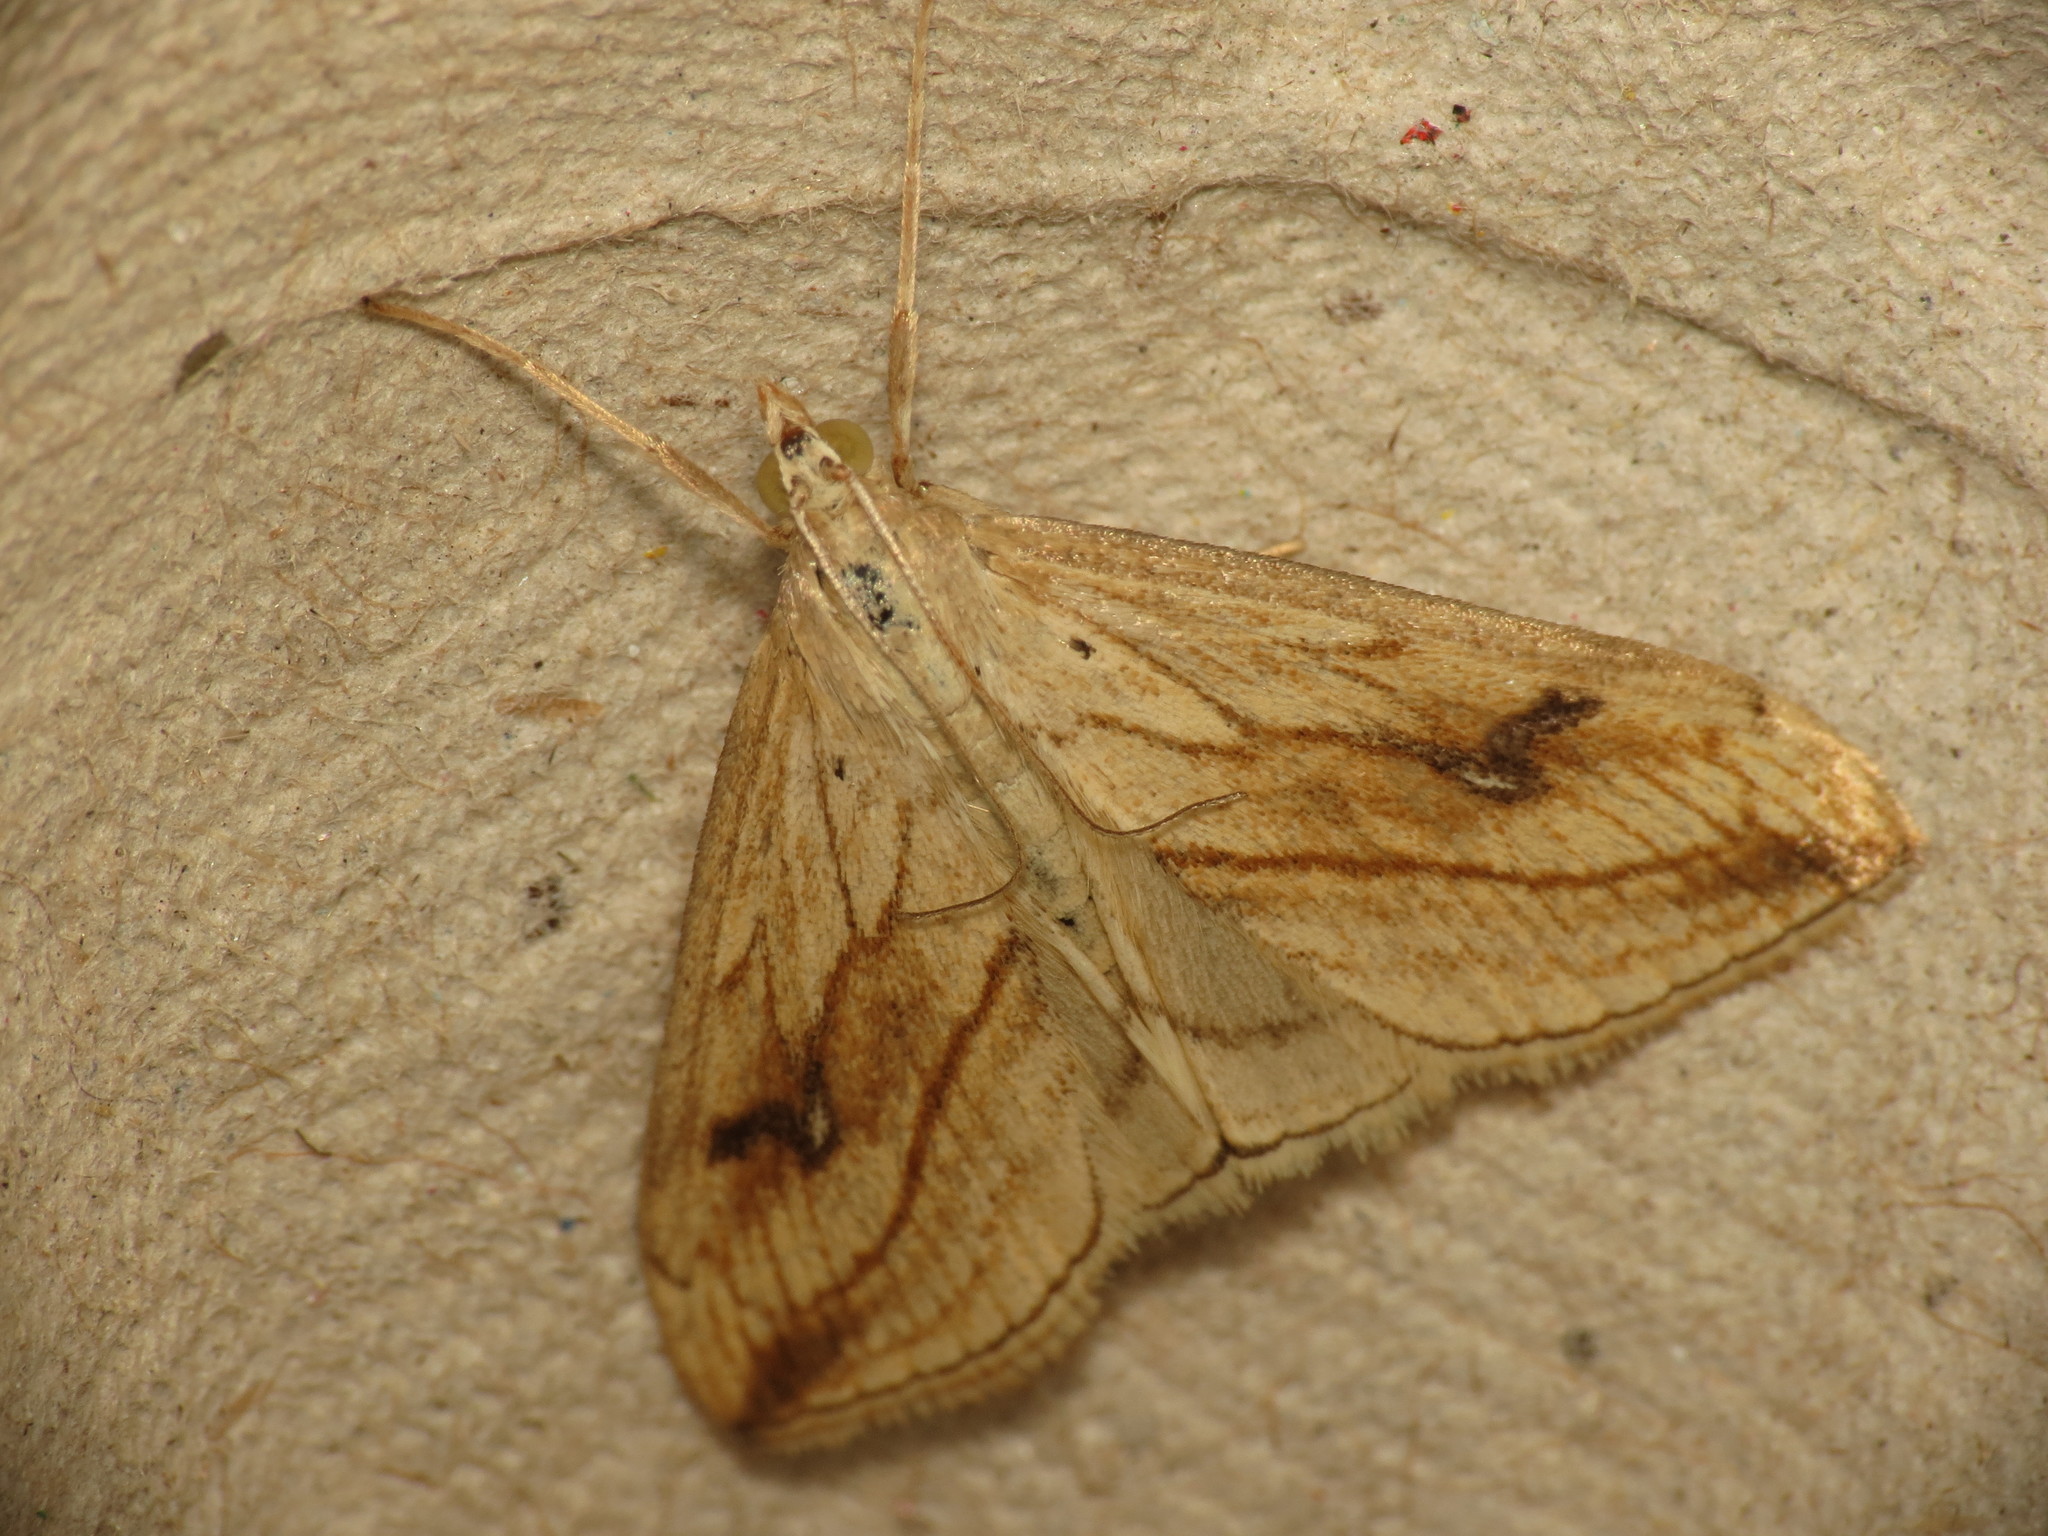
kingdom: Animalia
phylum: Arthropoda
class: Insecta
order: Lepidoptera
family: Crambidae
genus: Evergestis
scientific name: Evergestis forficalis
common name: Garden pebble
